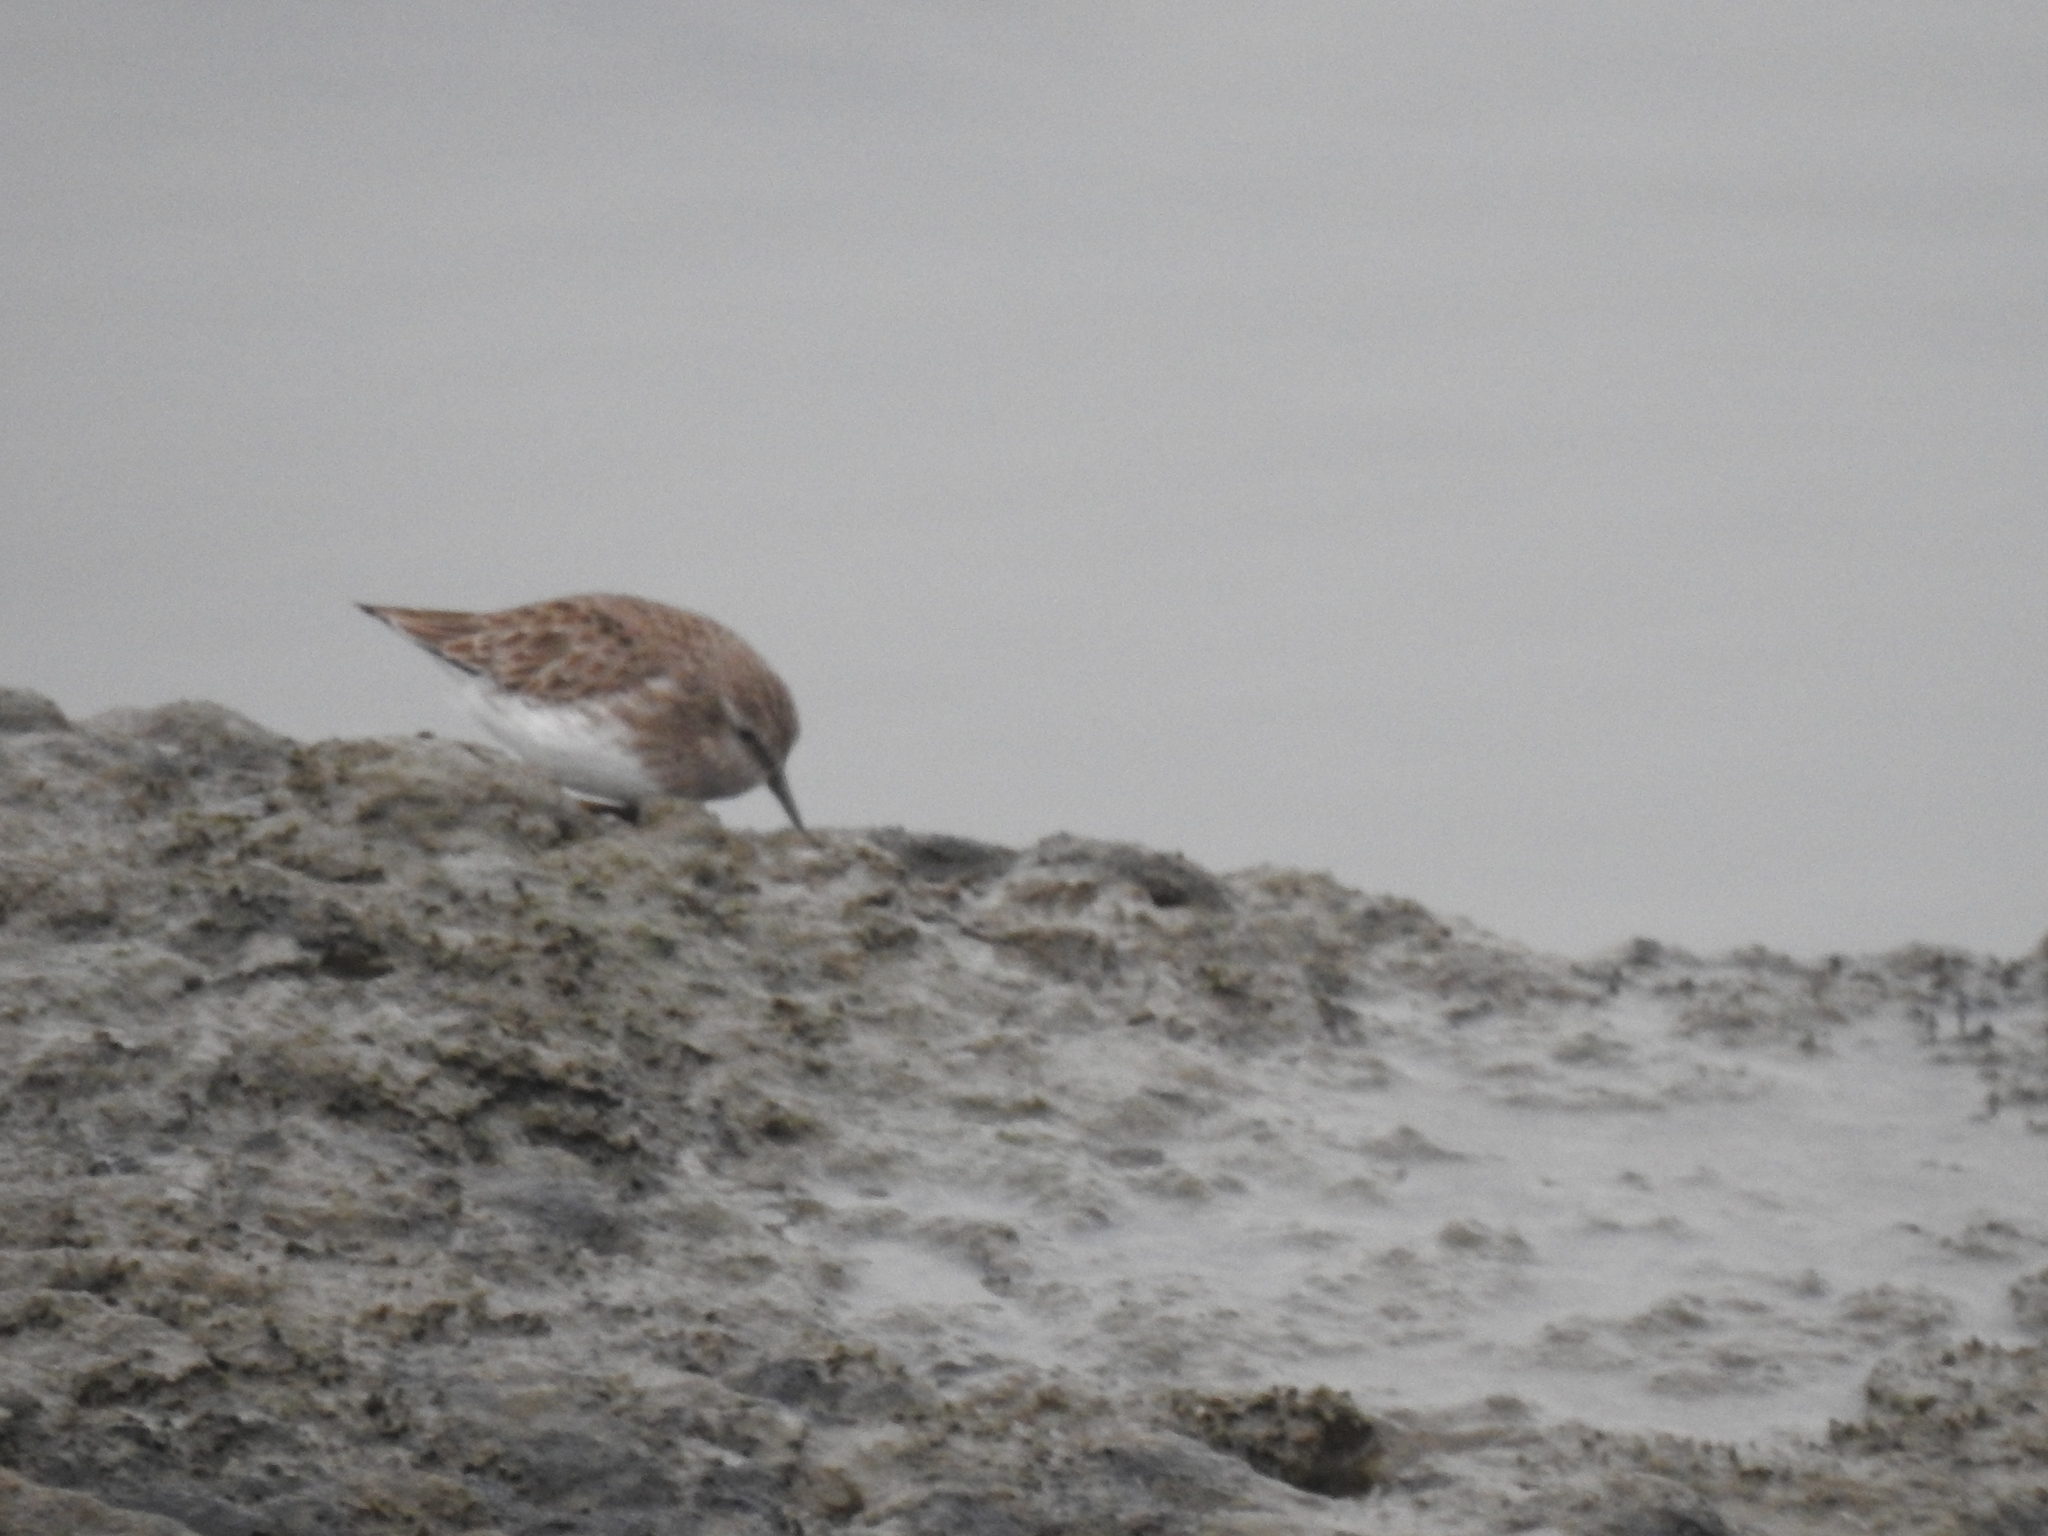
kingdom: Animalia
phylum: Chordata
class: Aves
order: Charadriiformes
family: Scolopacidae
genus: Calidris
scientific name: Calidris minutilla
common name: Least sandpiper
